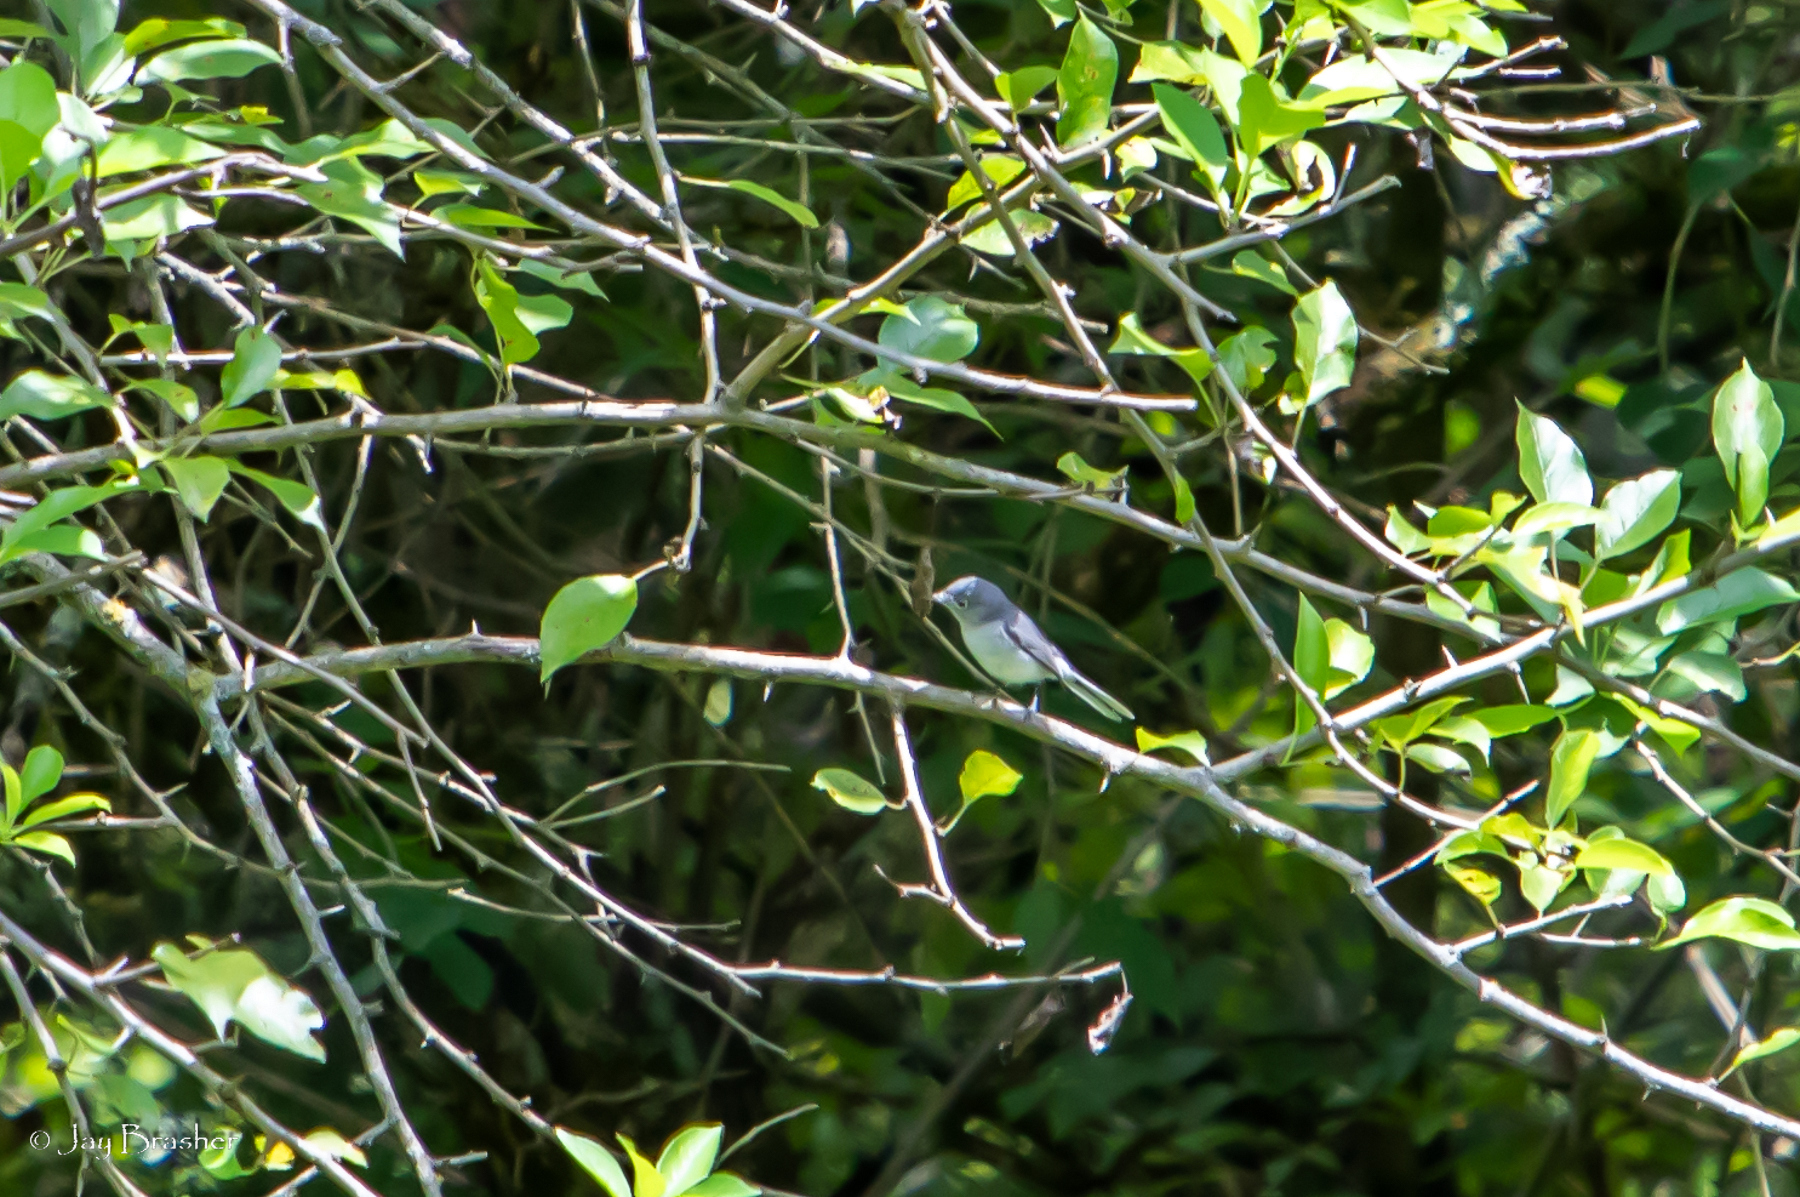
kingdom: Animalia
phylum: Chordata
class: Aves
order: Passeriformes
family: Polioptilidae
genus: Polioptila
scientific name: Polioptila caerulea
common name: Blue-gray gnatcatcher
